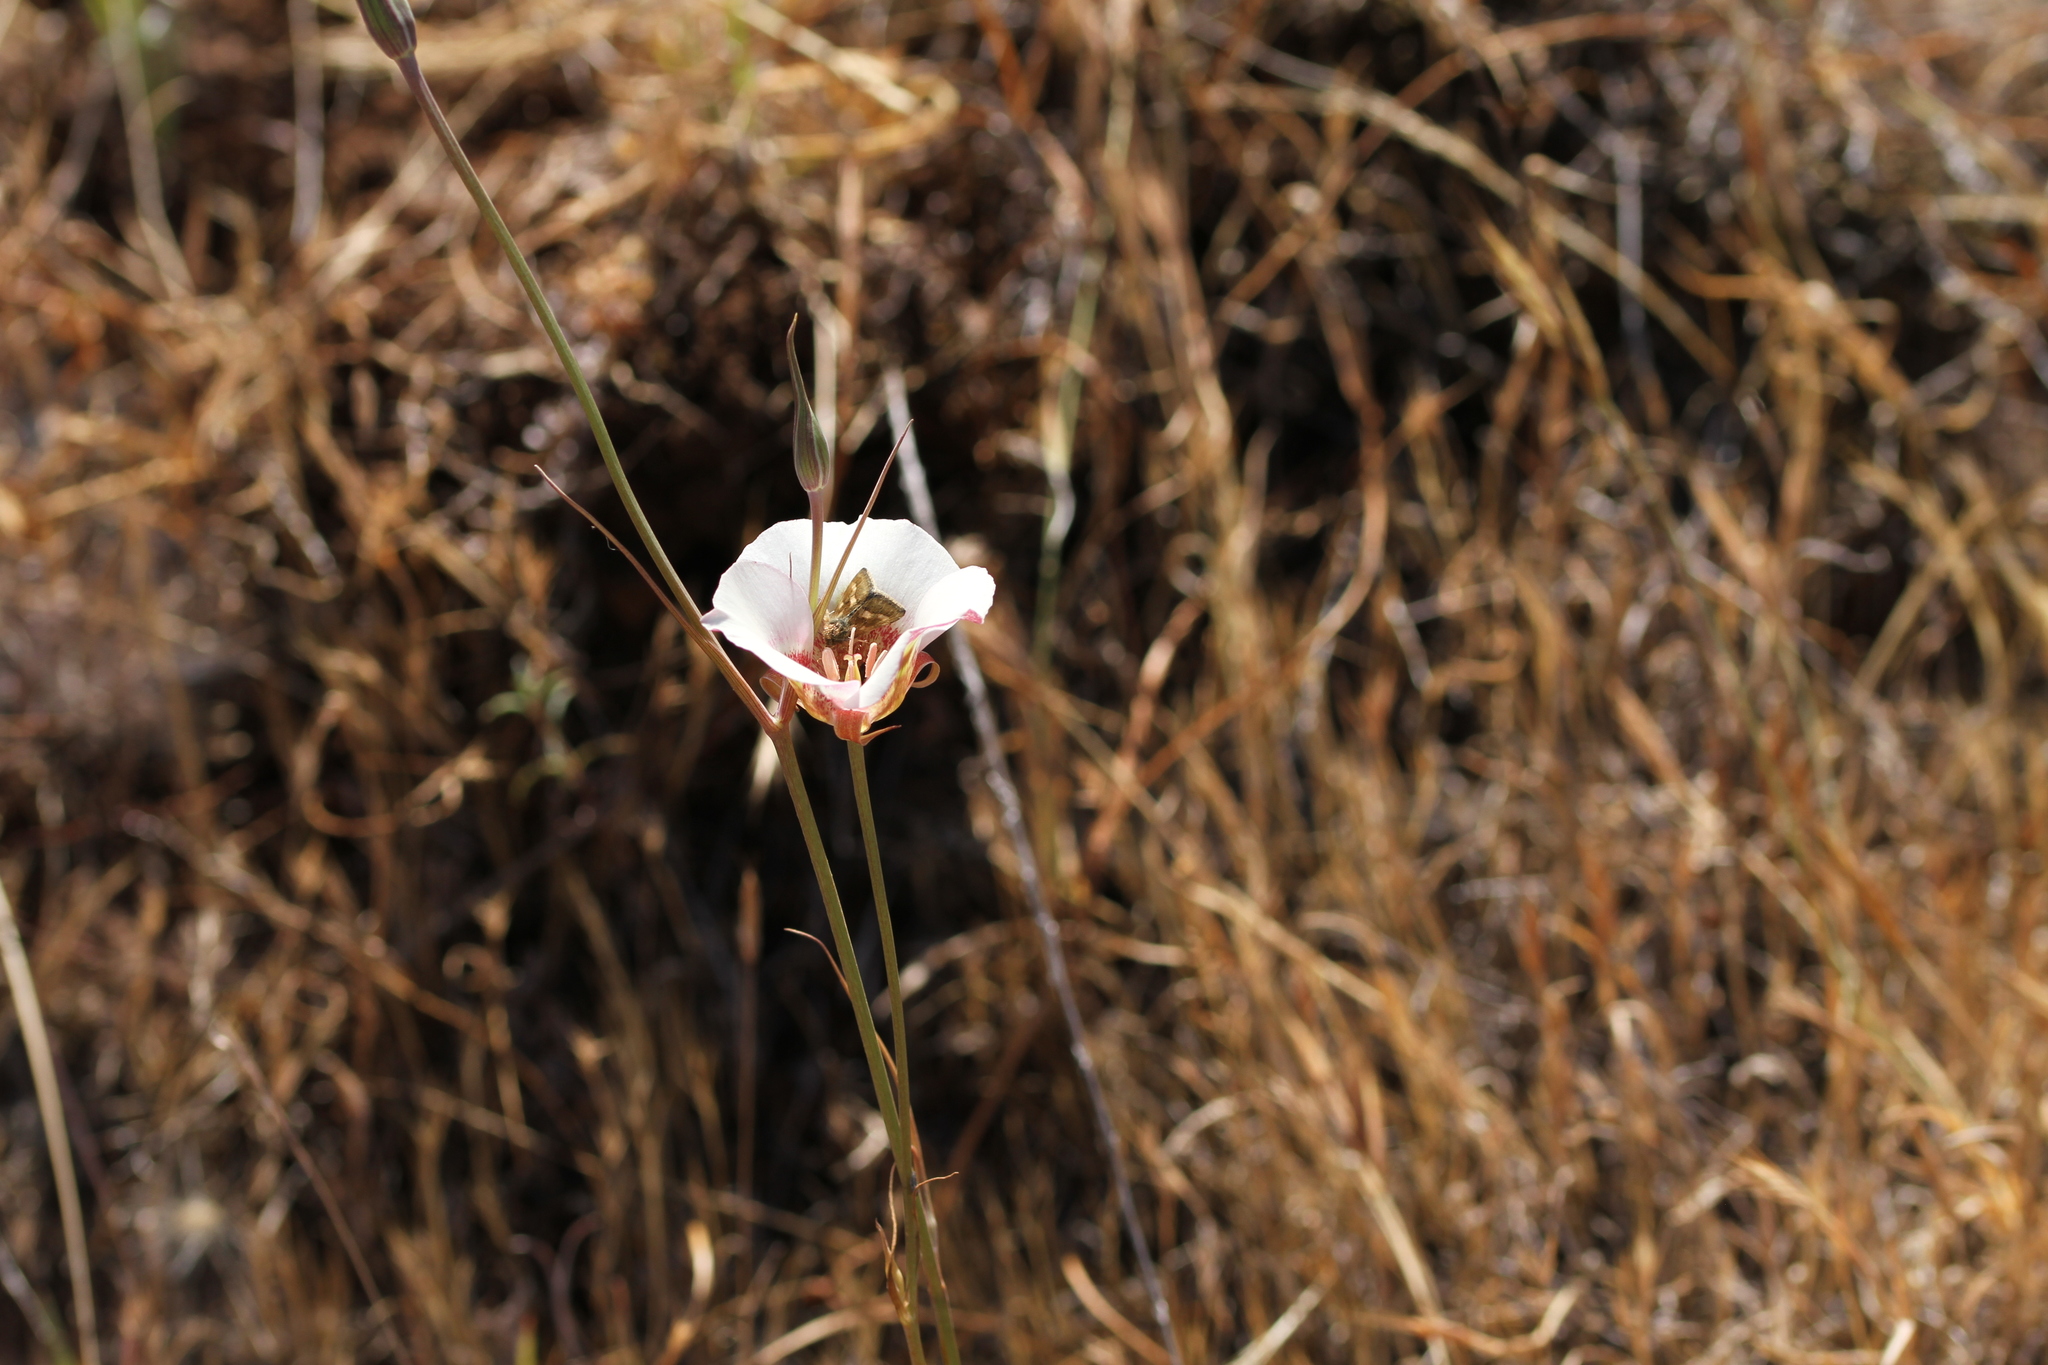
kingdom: Plantae
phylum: Tracheophyta
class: Liliopsida
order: Liliales
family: Liliaceae
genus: Calochortus
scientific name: Calochortus argillosus
